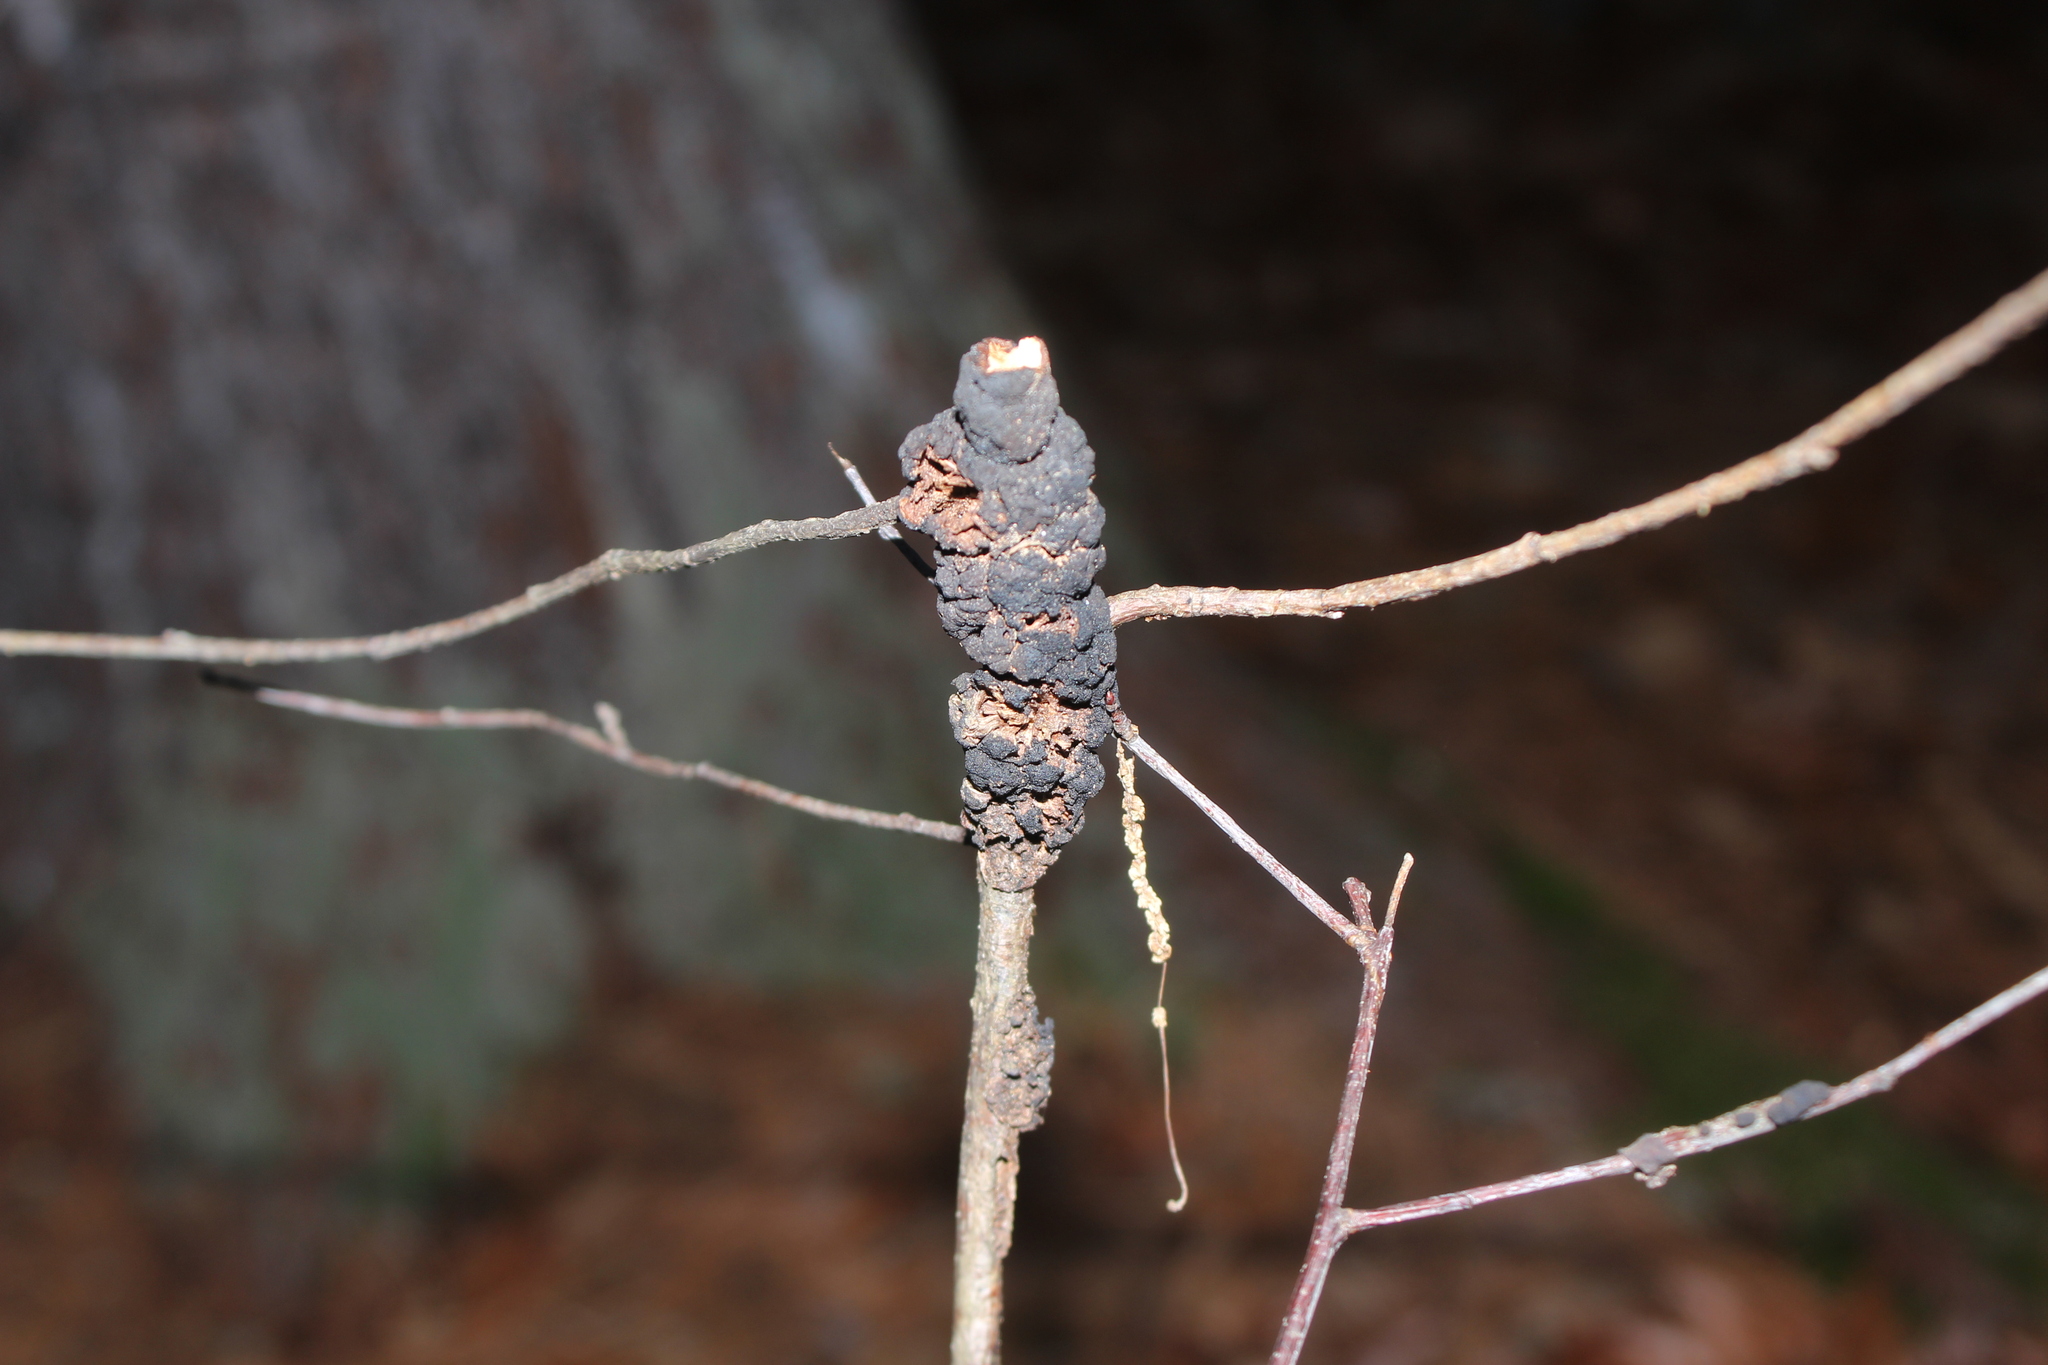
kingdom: Fungi
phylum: Ascomycota
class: Dothideomycetes
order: Venturiales
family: Venturiaceae
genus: Apiosporina
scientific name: Apiosporina morbosa
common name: Black knot
